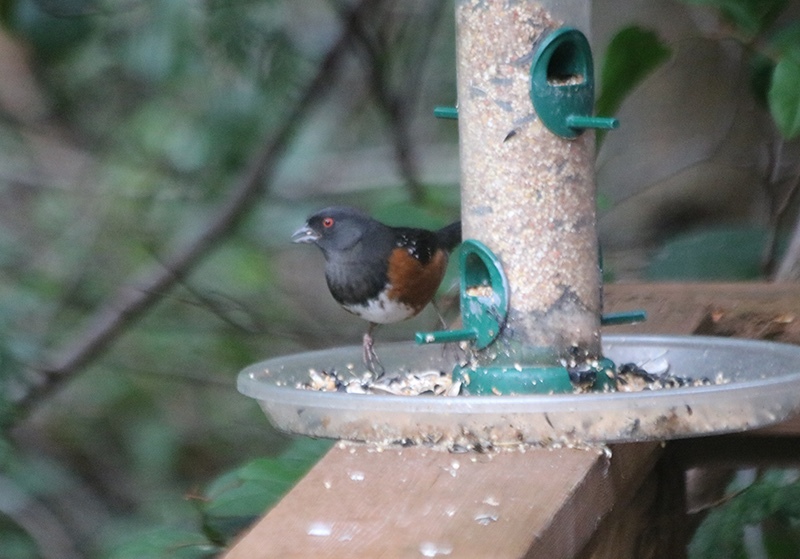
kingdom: Animalia
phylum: Chordata
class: Aves
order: Passeriformes
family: Passerellidae
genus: Pipilo
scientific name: Pipilo maculatus
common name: Spotted towhee
